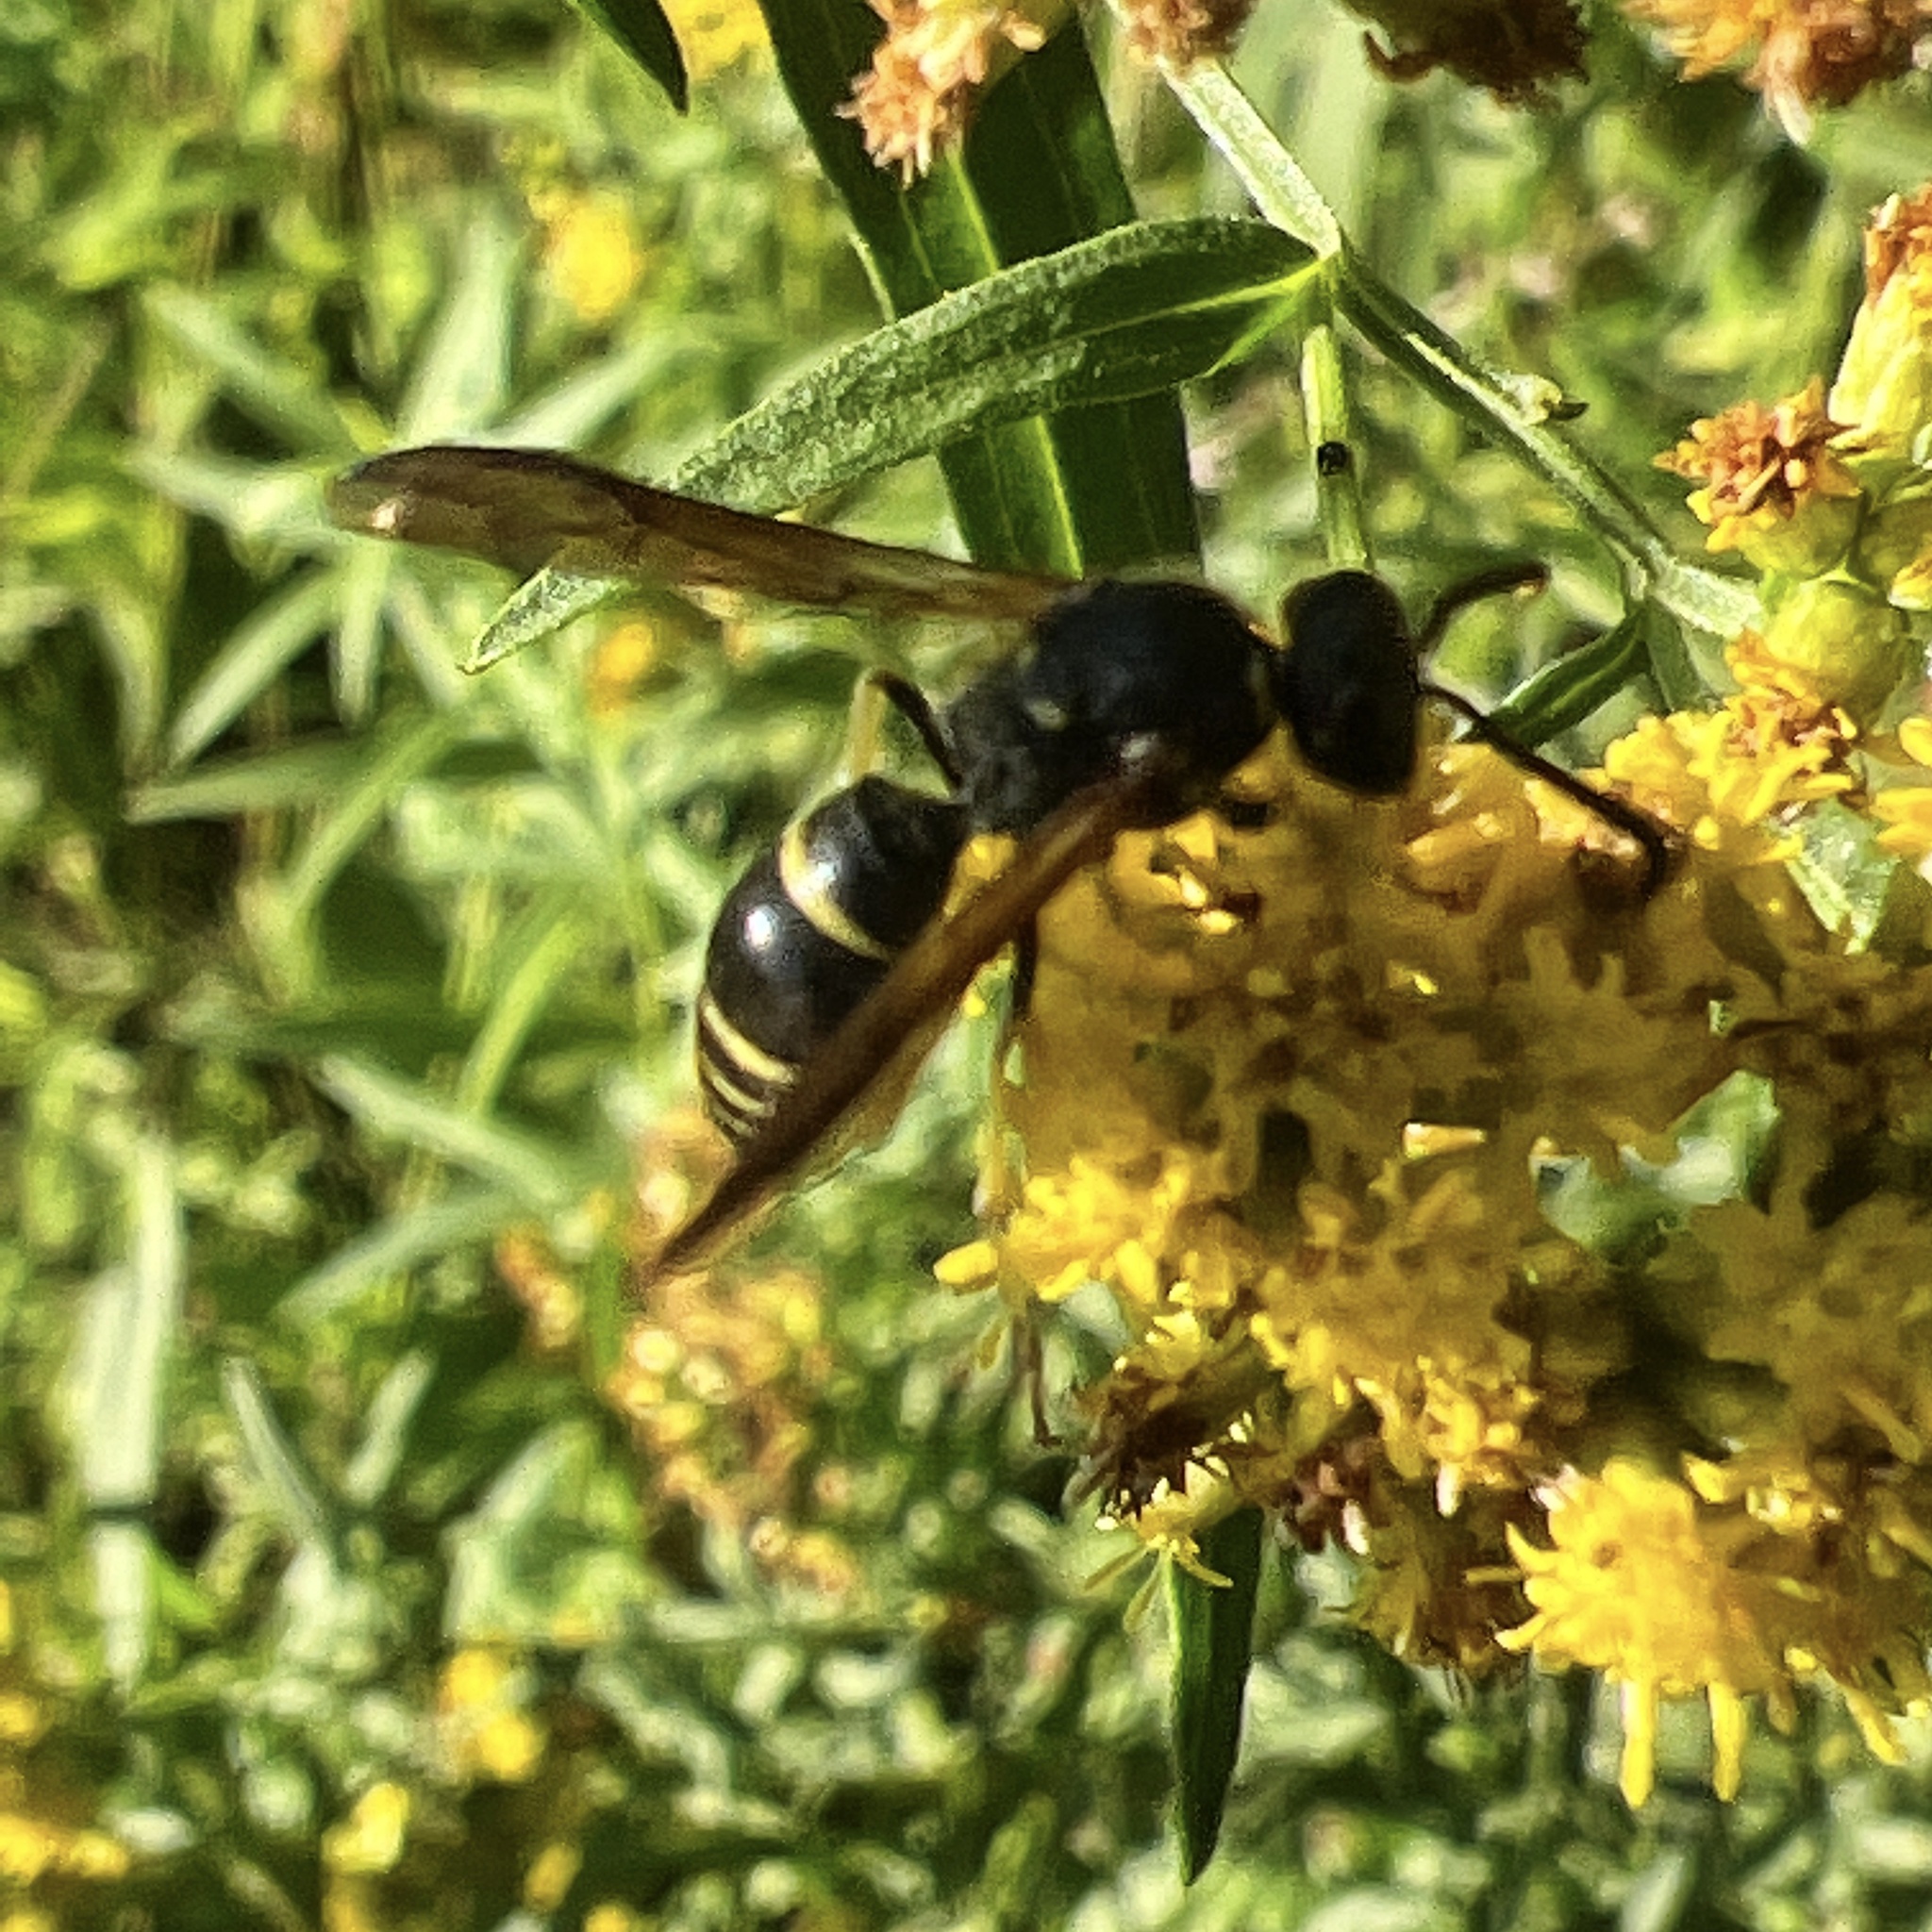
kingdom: Animalia
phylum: Arthropoda
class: Insecta
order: Hymenoptera
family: Vespidae
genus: Ancistrocerus
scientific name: Ancistrocerus
